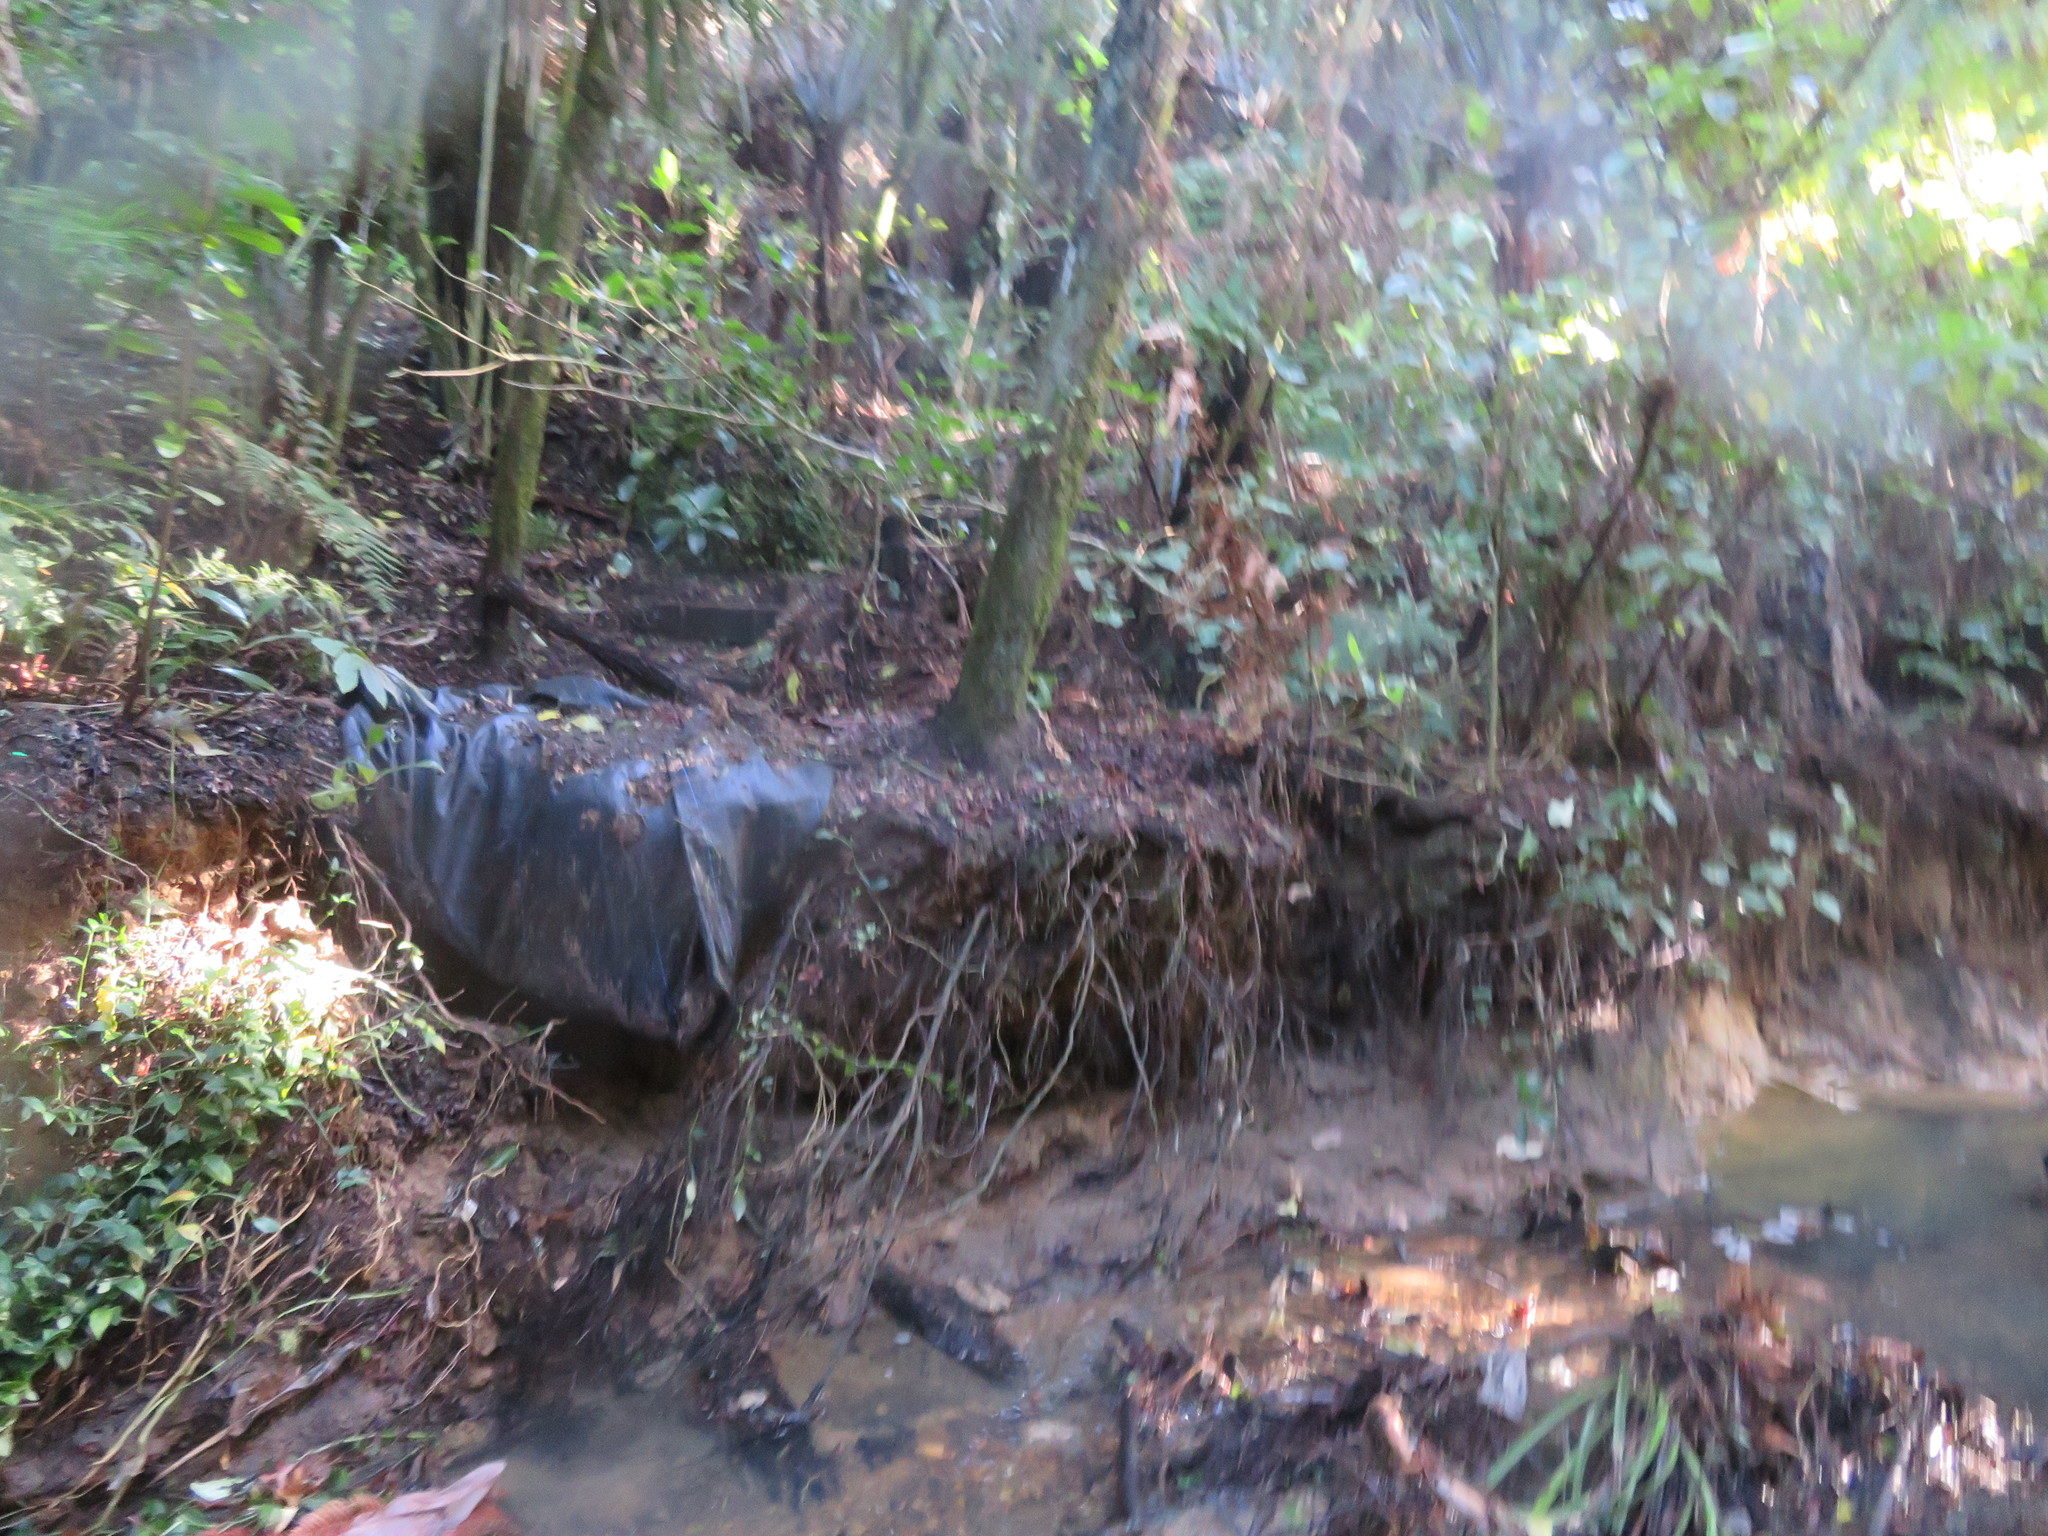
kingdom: Plantae
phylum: Tracheophyta
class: Liliopsida
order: Commelinales
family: Commelinaceae
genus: Tradescantia
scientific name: Tradescantia fluminensis
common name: Wandering-jew
